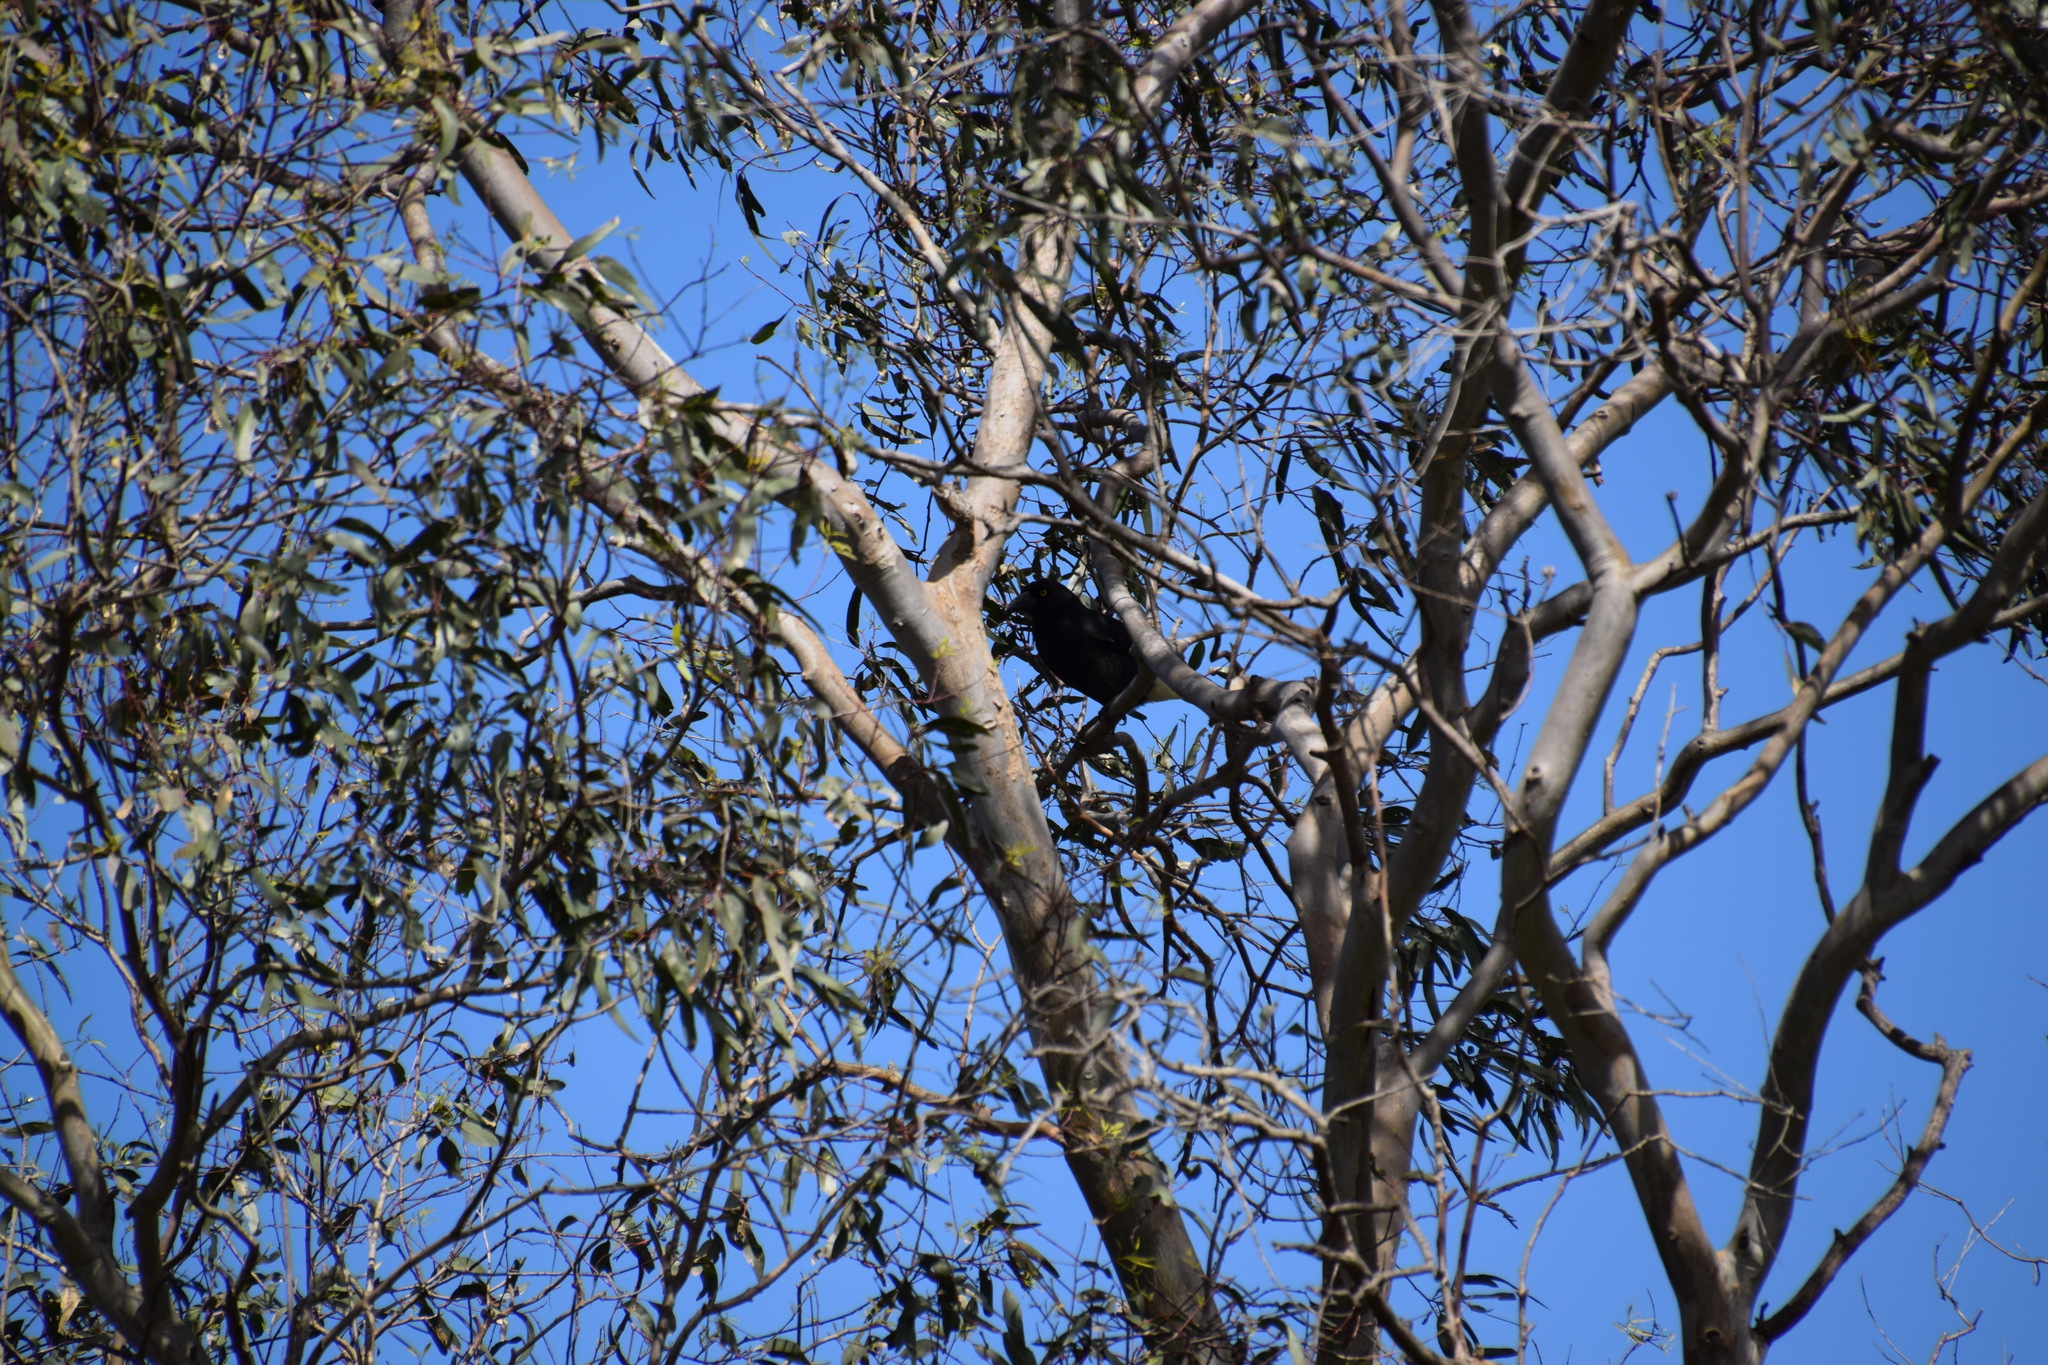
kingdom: Animalia
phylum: Chordata
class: Aves
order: Passeriformes
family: Cracticidae
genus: Strepera
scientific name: Strepera graculina
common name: Pied currawong
